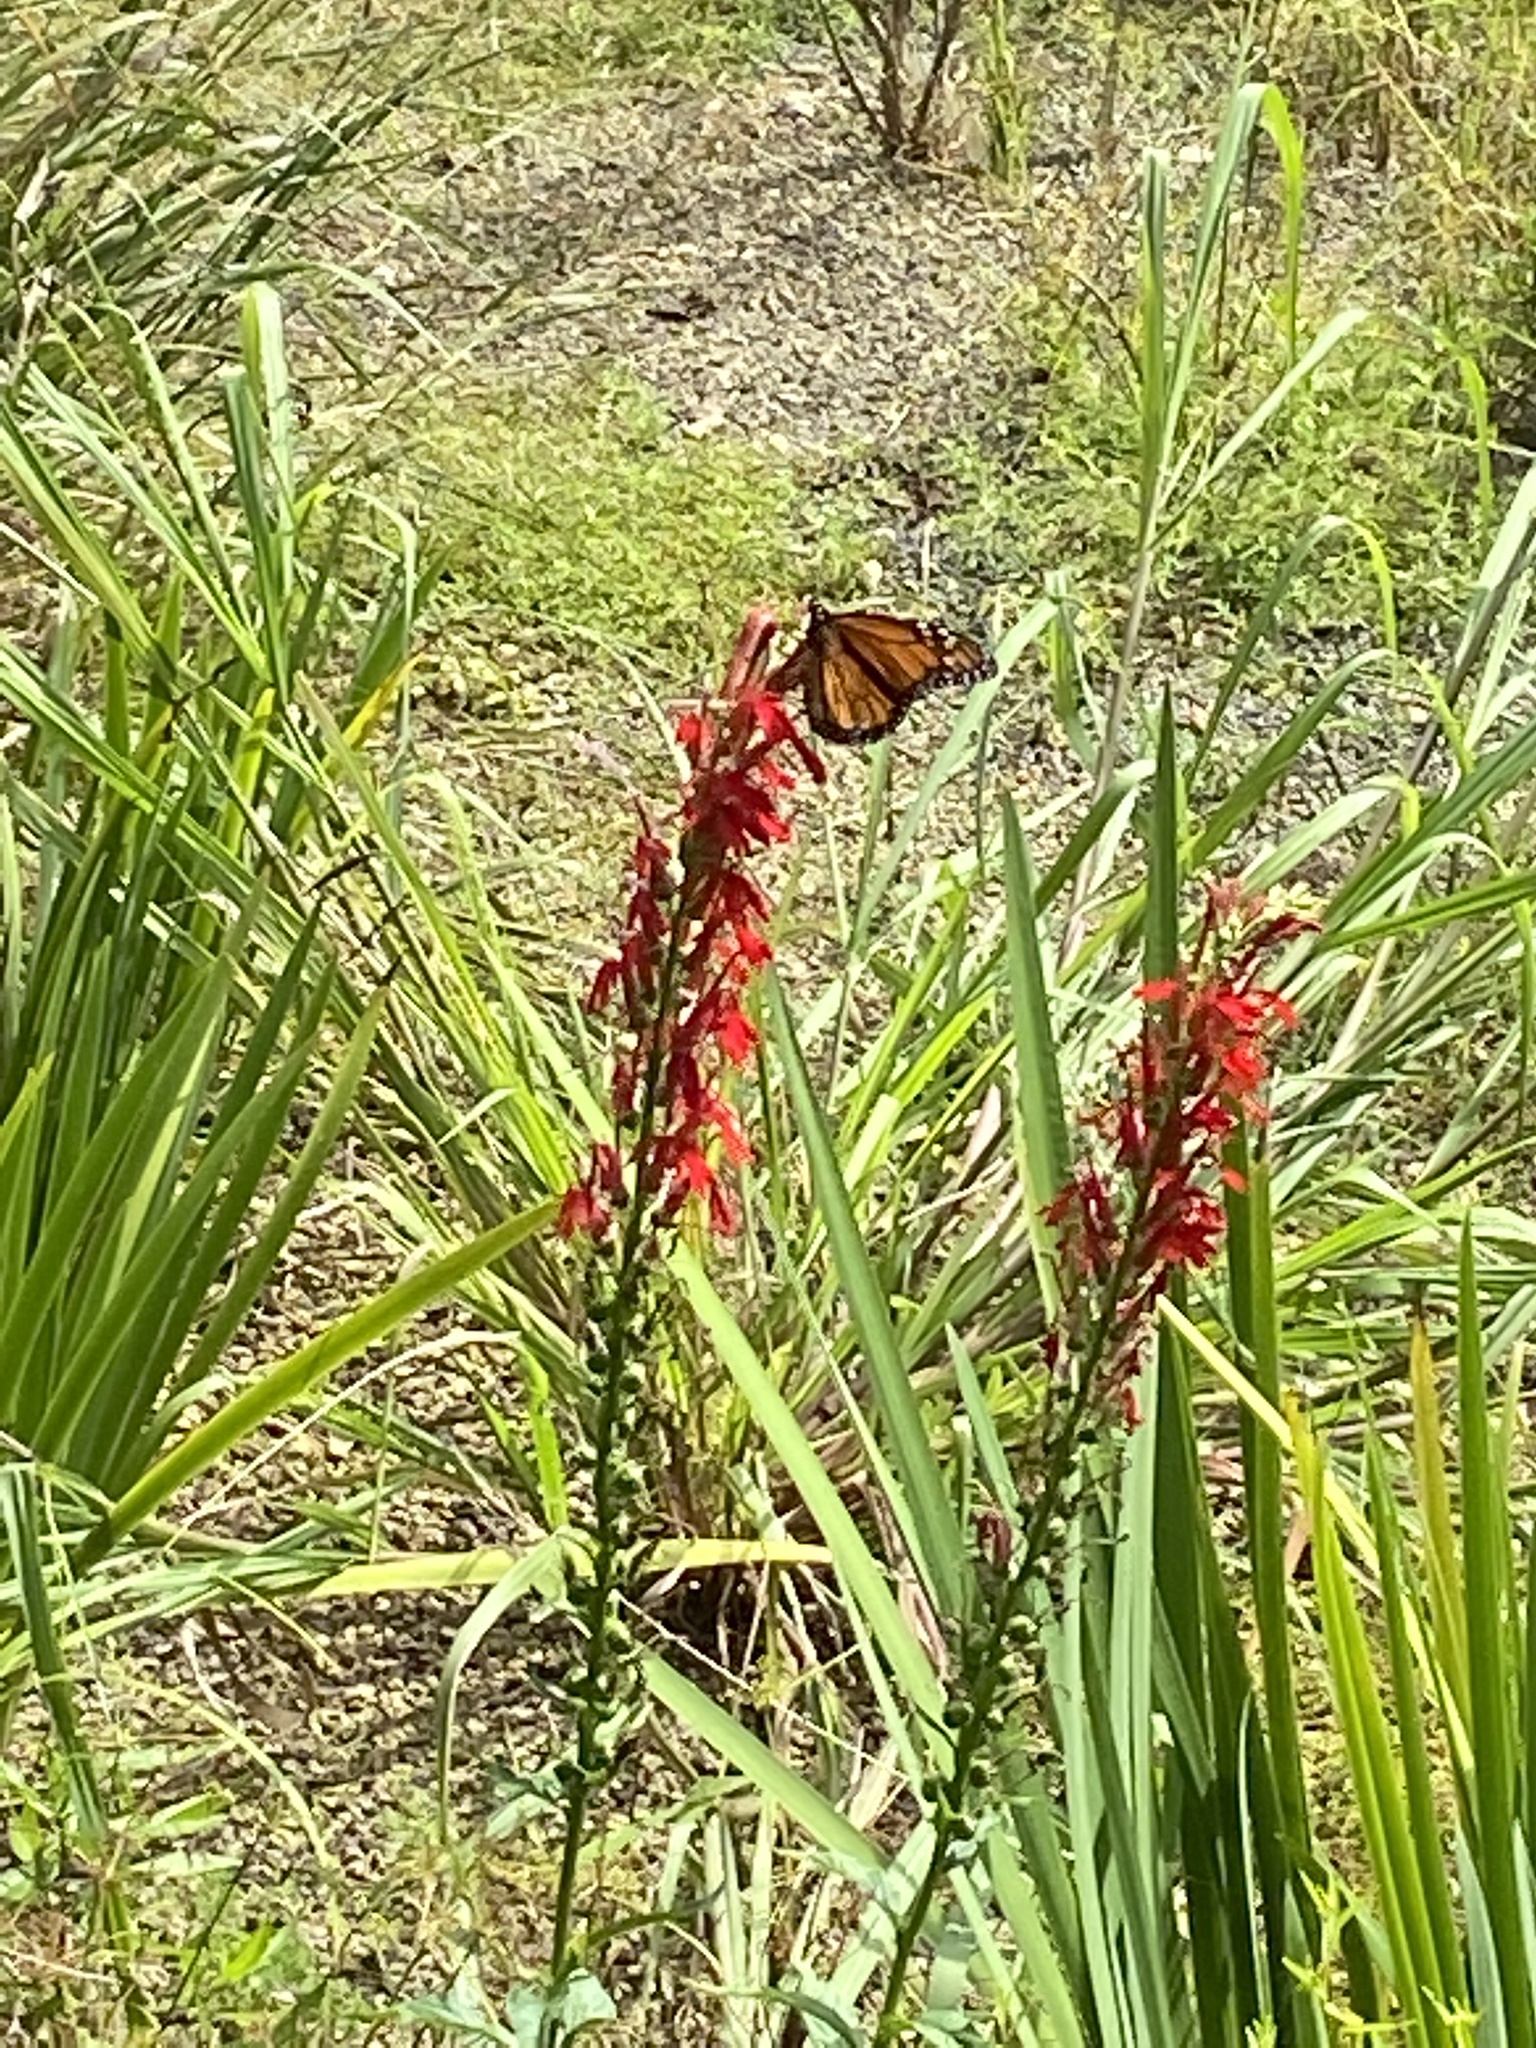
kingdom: Animalia
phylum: Arthropoda
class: Insecta
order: Lepidoptera
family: Nymphalidae
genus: Danaus
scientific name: Danaus plexippus
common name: Monarch
